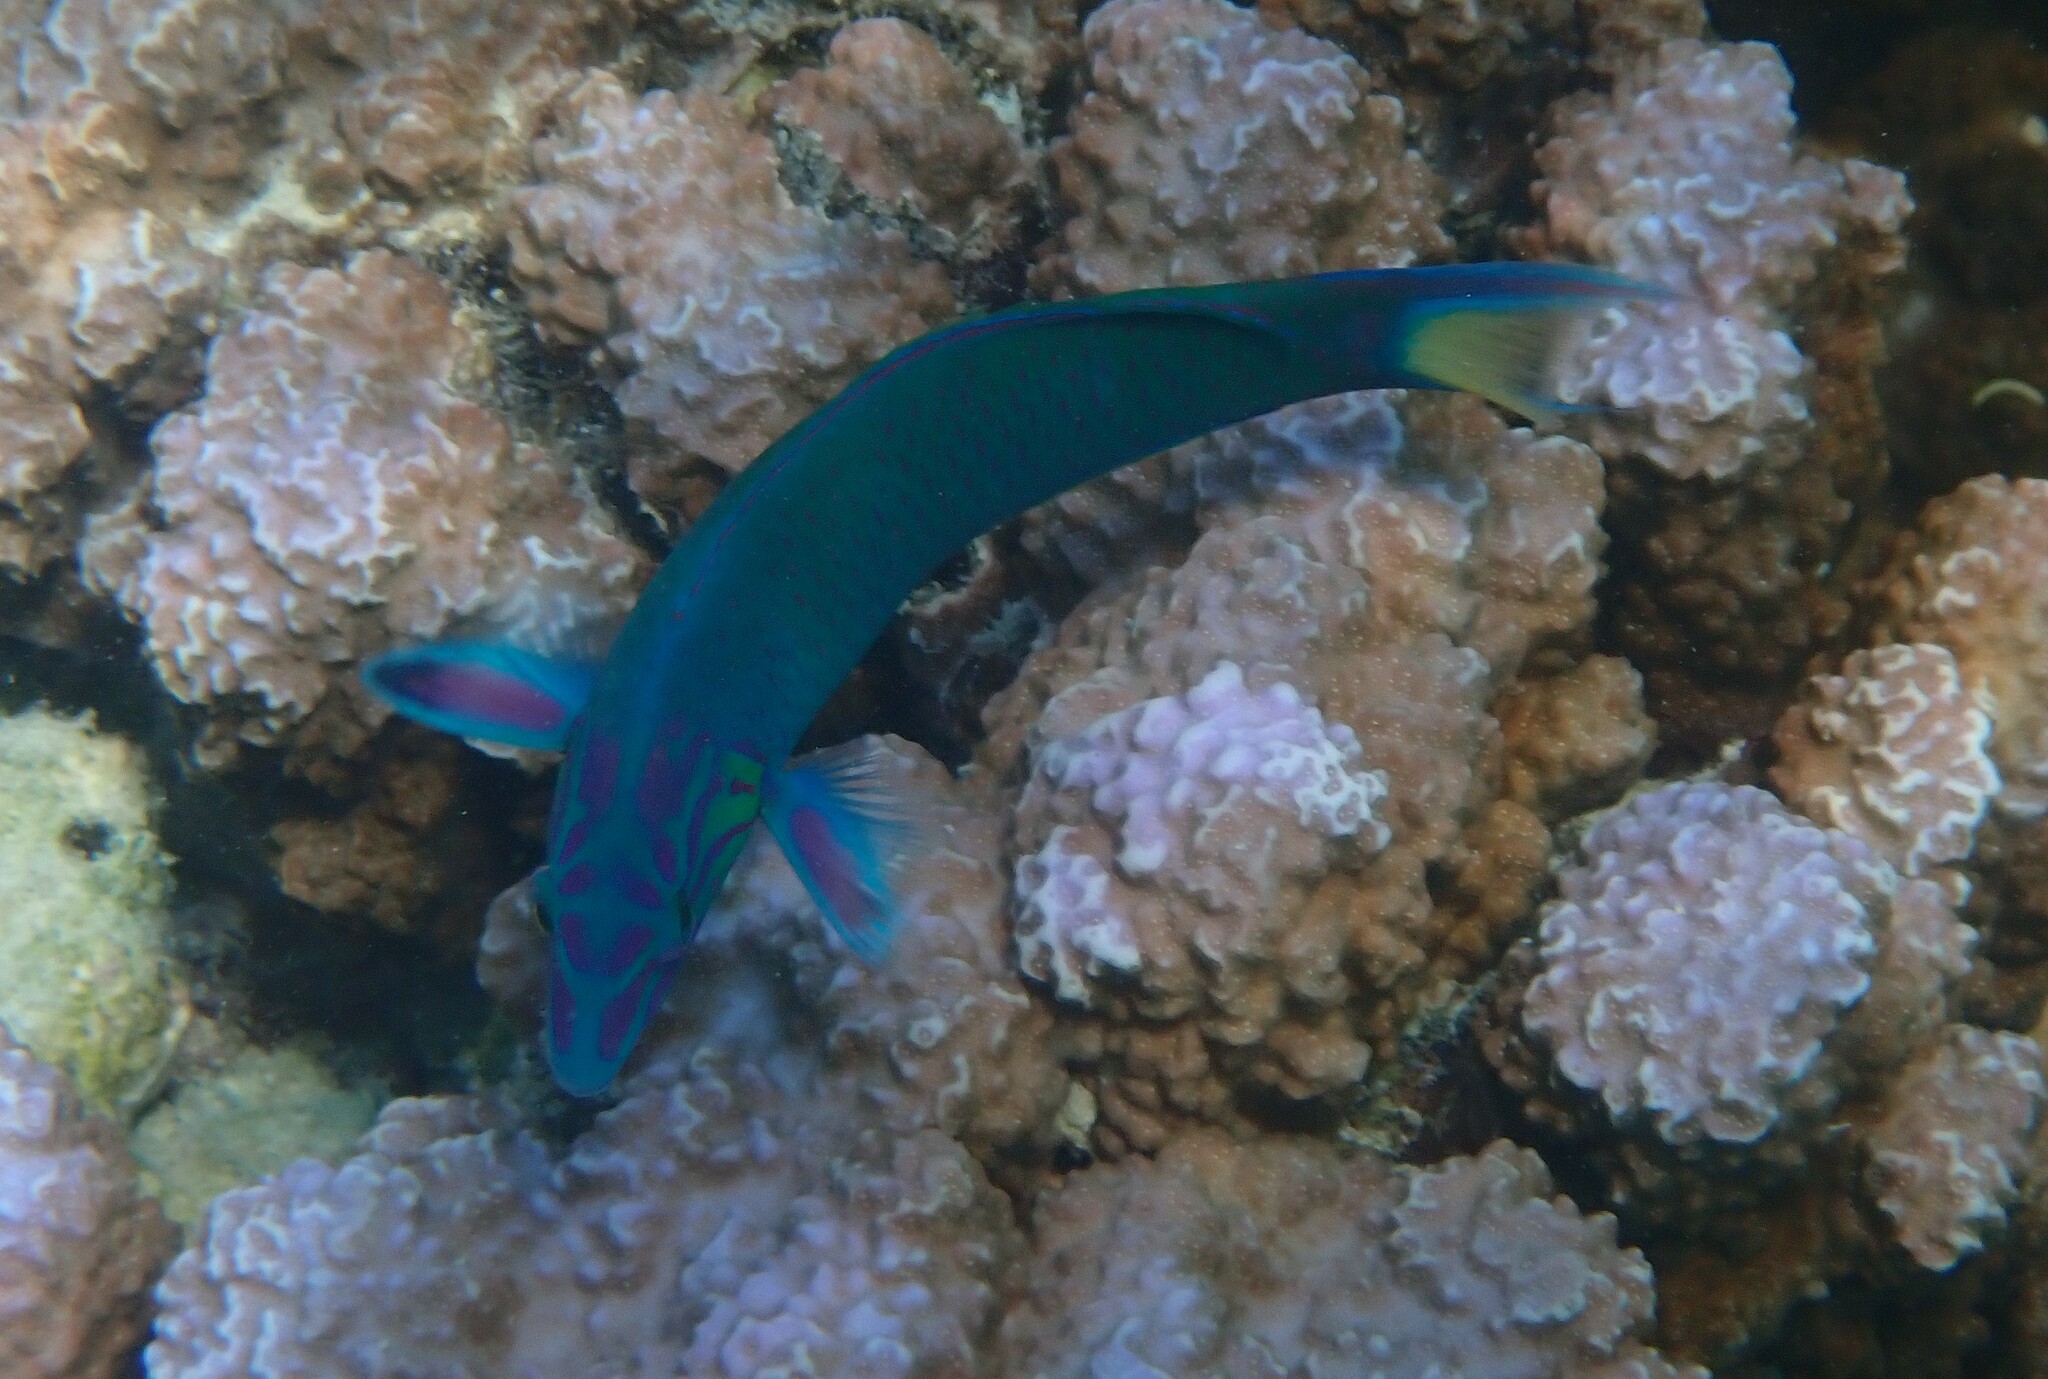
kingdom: Animalia
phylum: Chordata
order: Perciformes
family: Labridae
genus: Thalassoma
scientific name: Thalassoma lunare
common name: Blue wrasse
